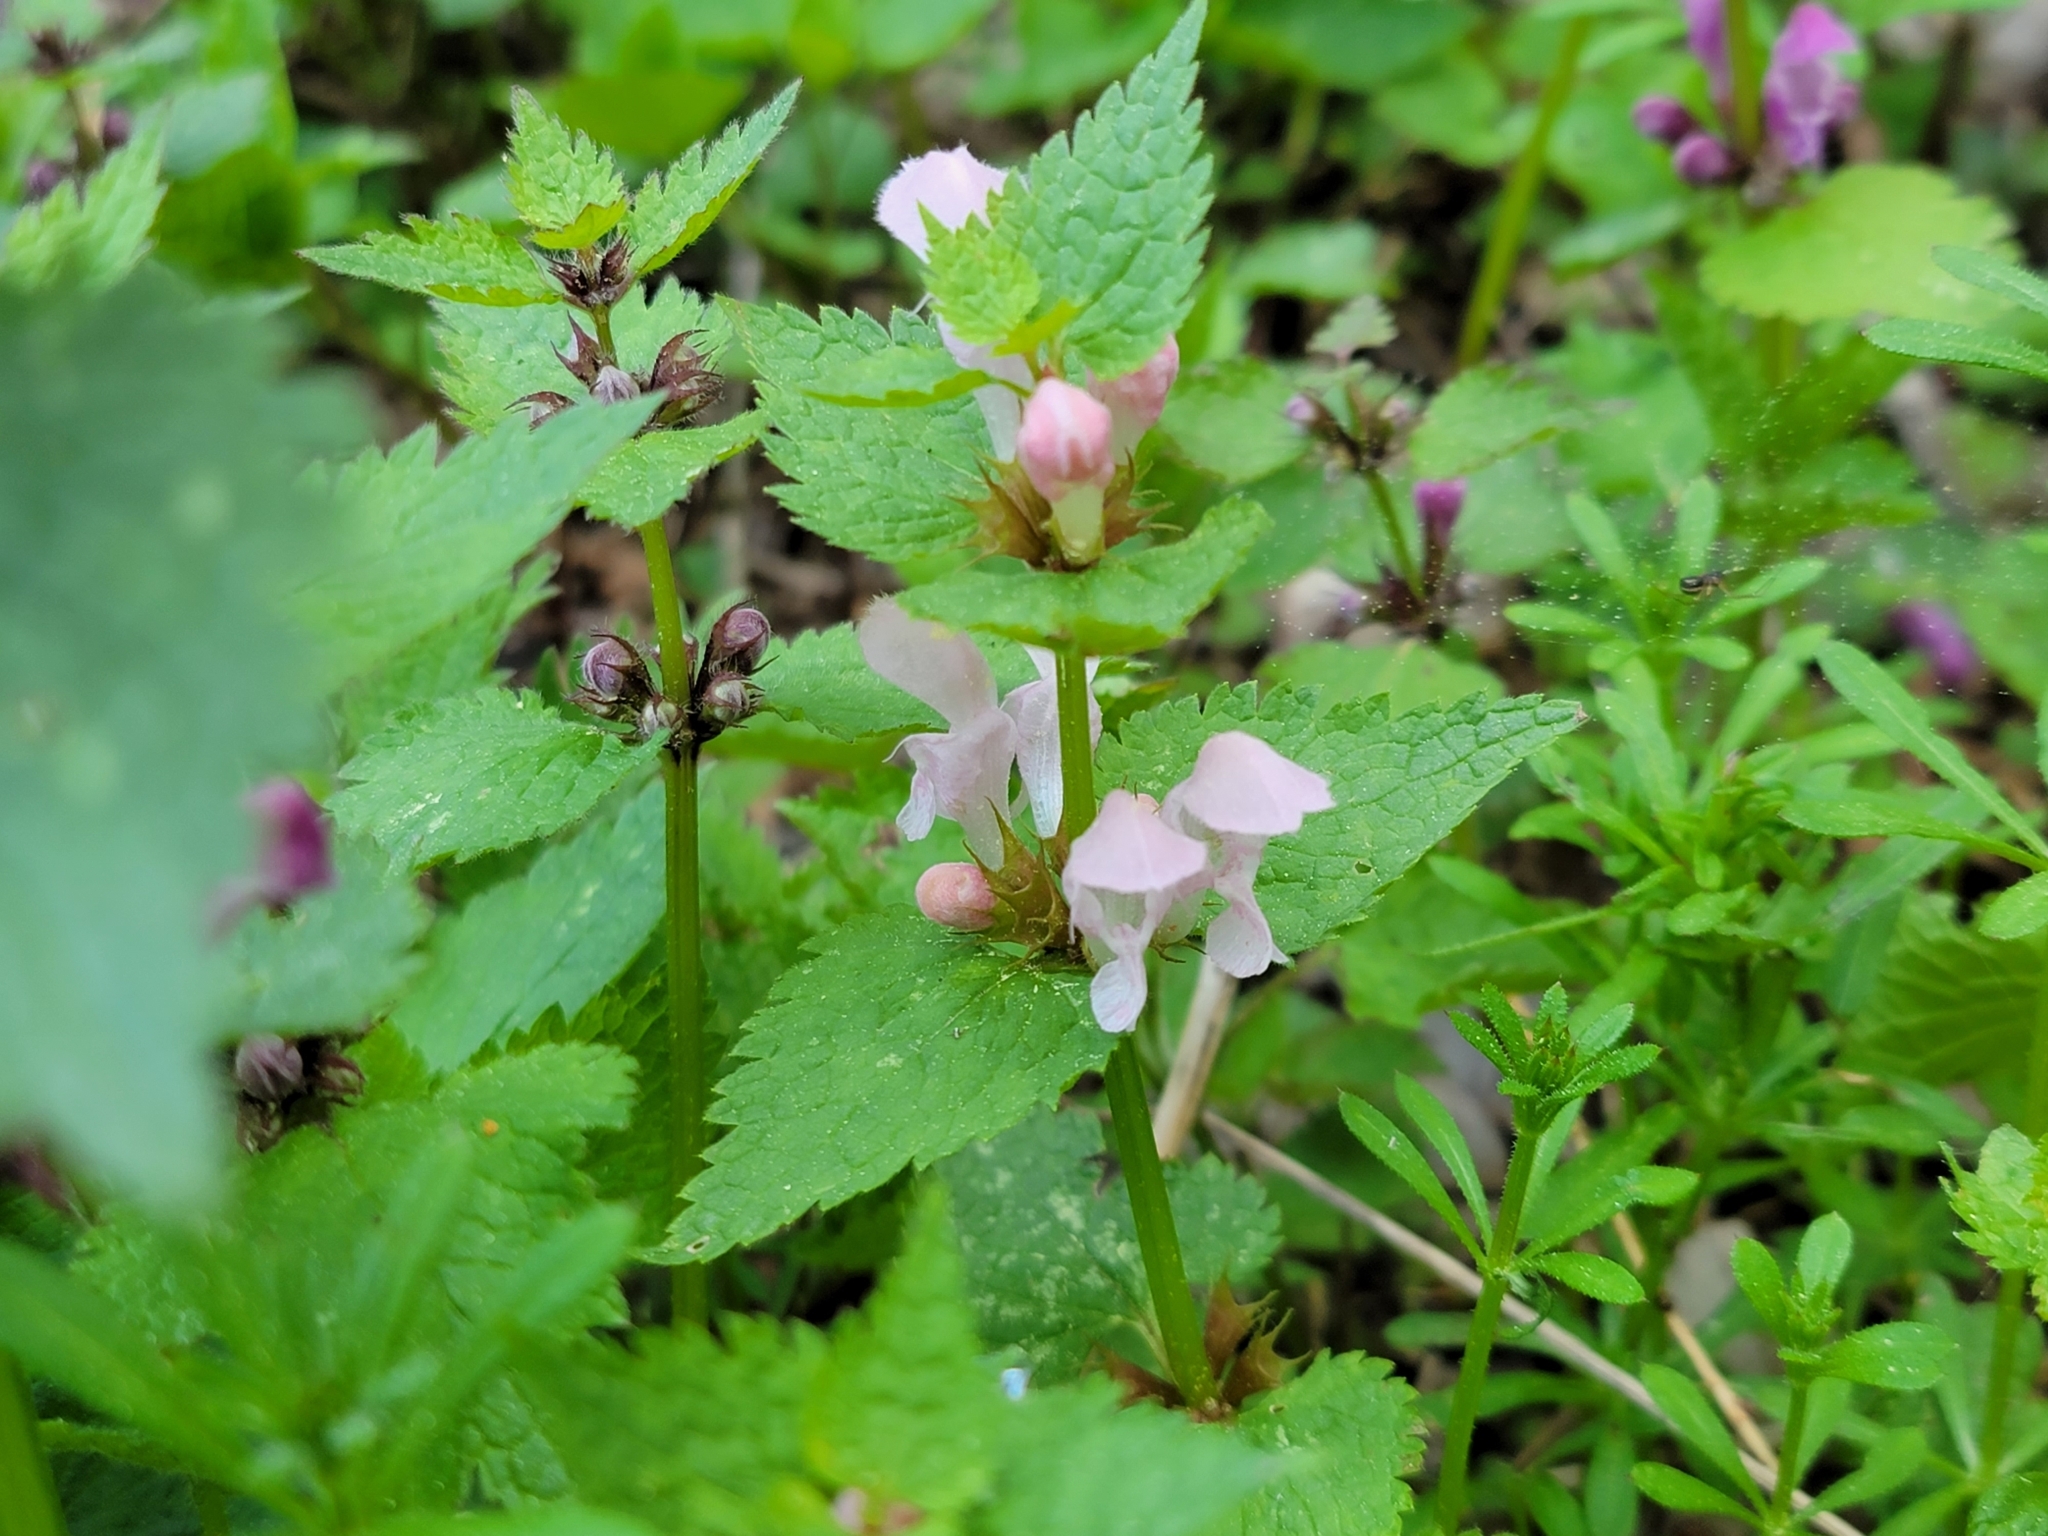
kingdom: Plantae
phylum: Tracheophyta
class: Magnoliopsida
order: Lamiales
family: Lamiaceae
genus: Lamium
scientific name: Lamium maculatum
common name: Spotted dead-nettle
